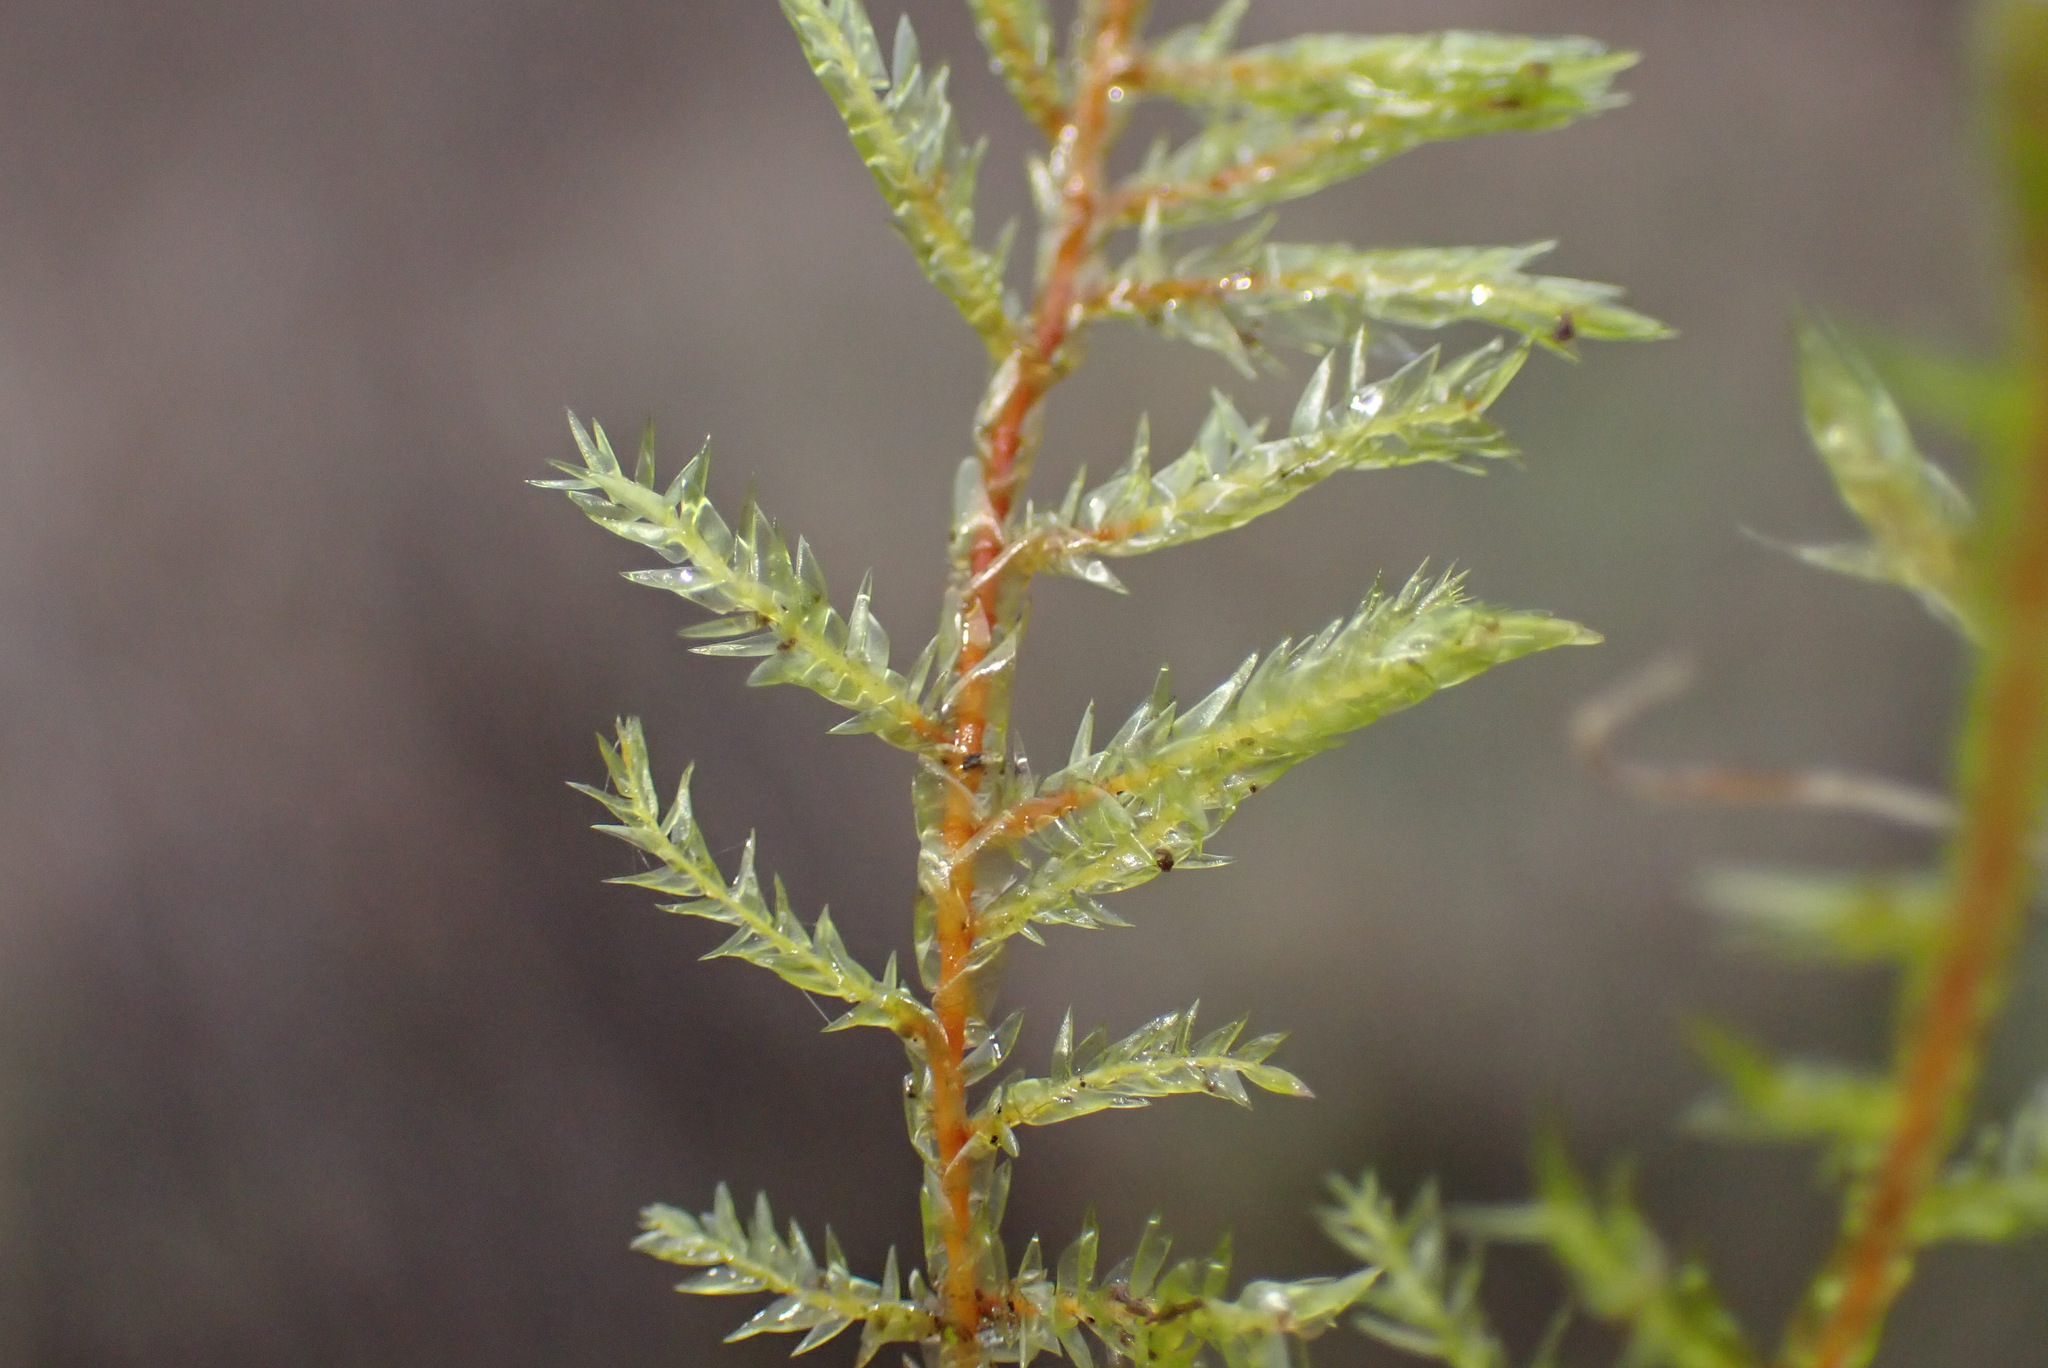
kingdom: Plantae
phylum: Bryophyta
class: Bryopsida
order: Hypnales
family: Pylaisiaceae
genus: Calliergonella
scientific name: Calliergonella cuspidata
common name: Common large wetland moss
